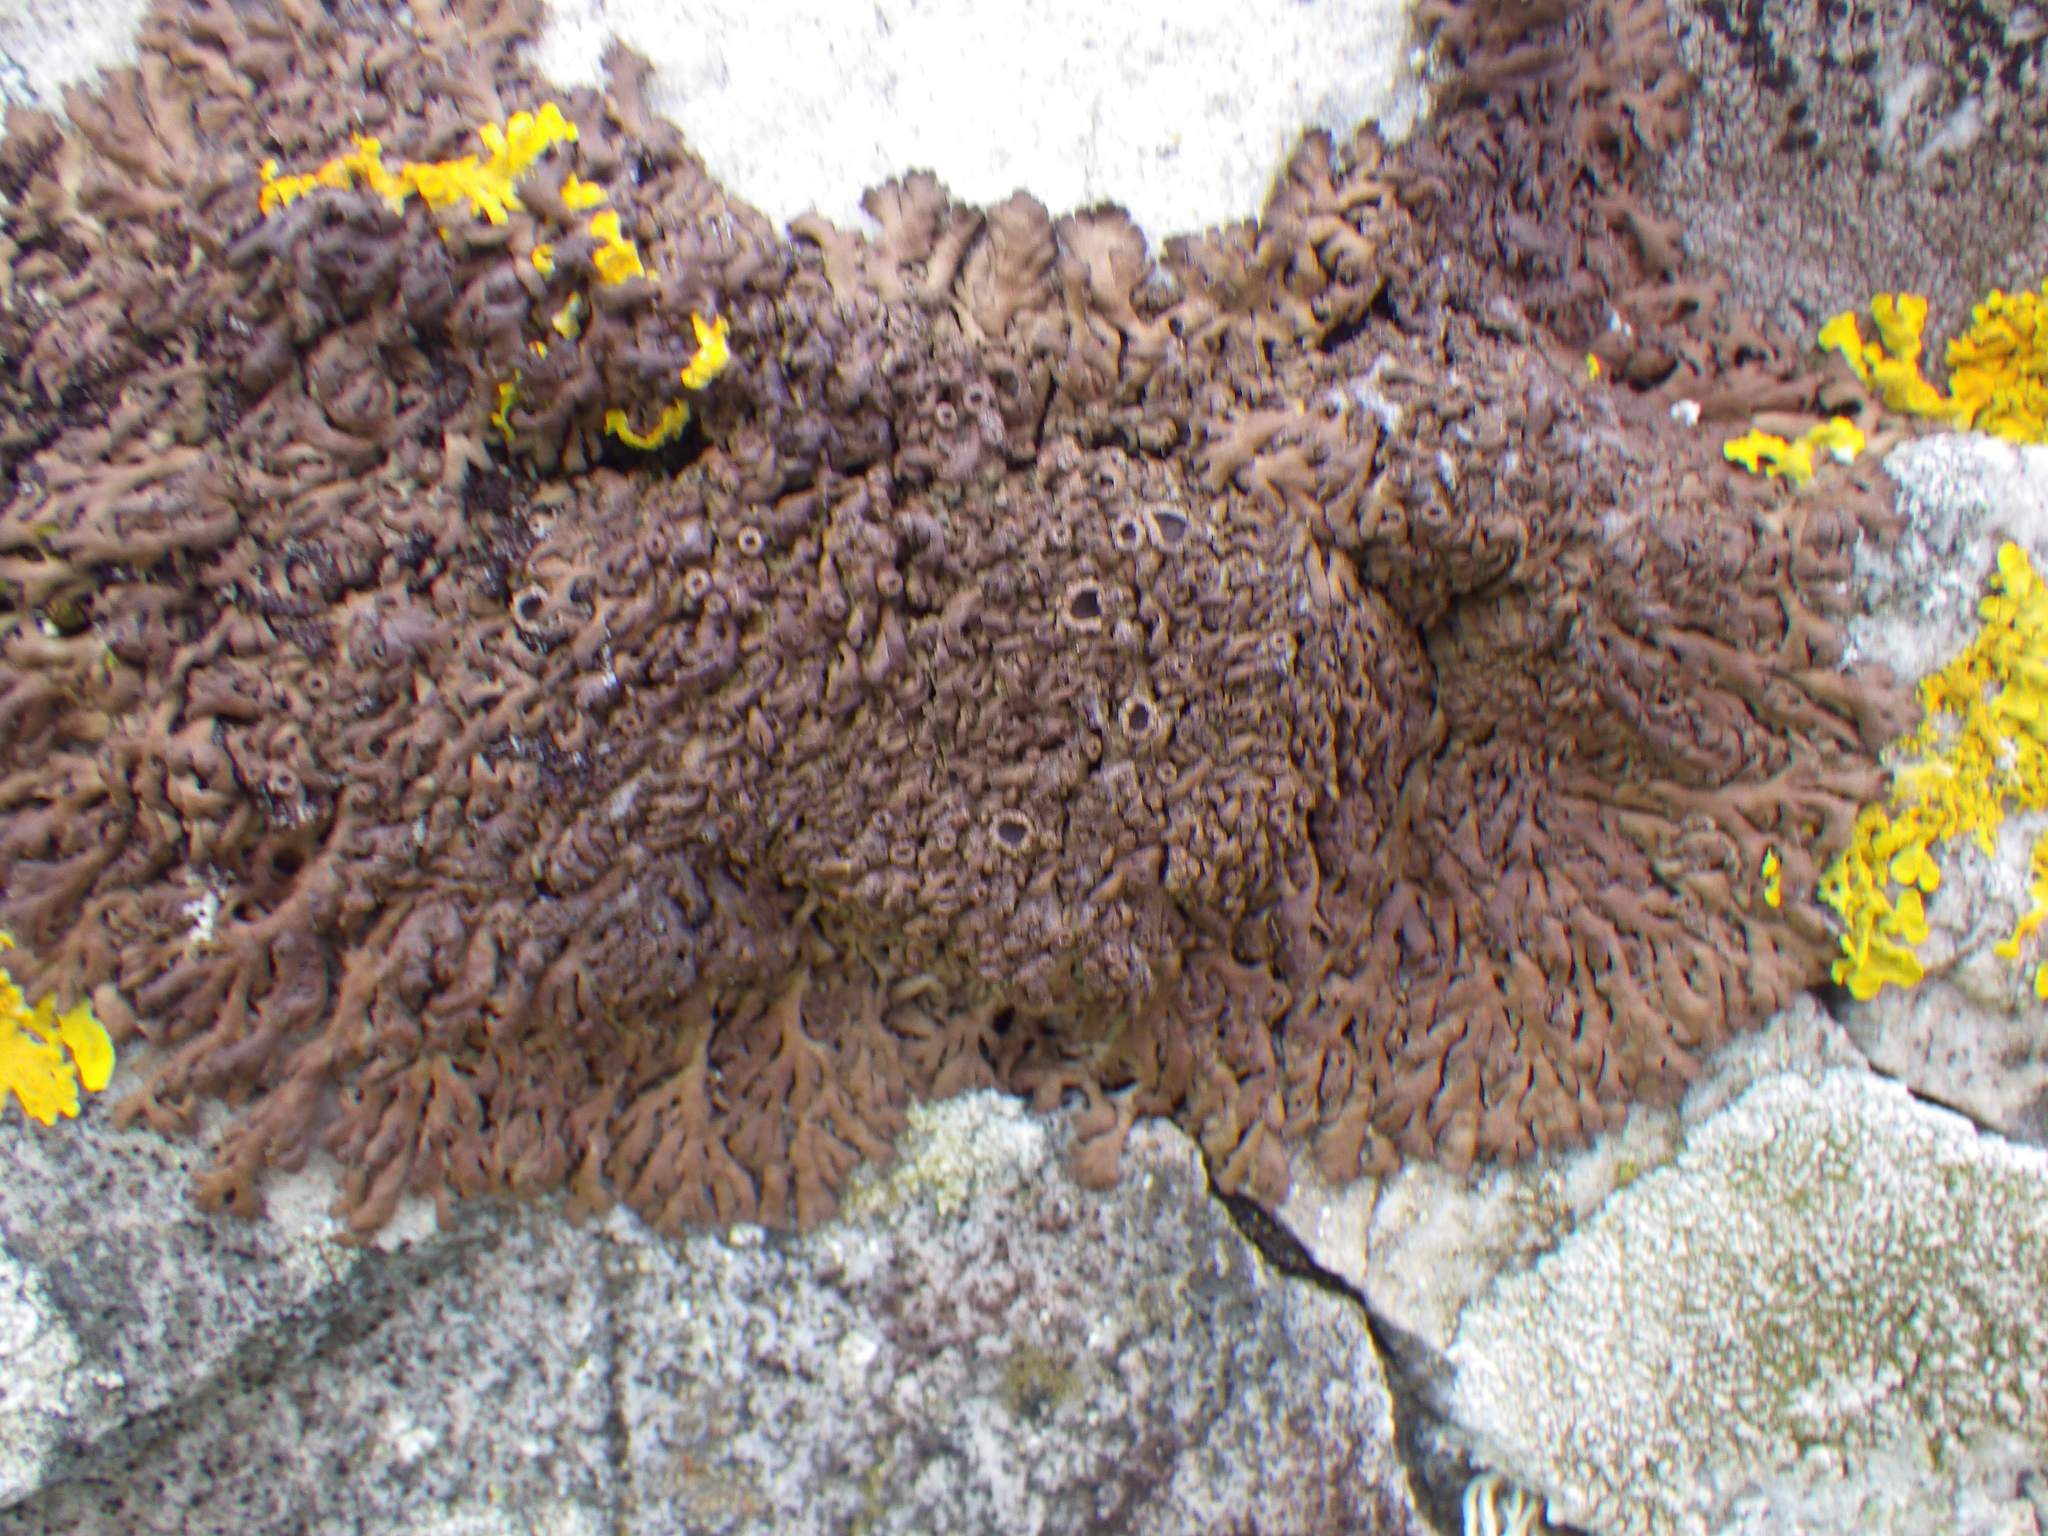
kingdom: Fungi
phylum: Ascomycota
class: Lecanoromycetes
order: Caliciales
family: Physciaceae
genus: Kurokawia
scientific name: Kurokawia runcinata
